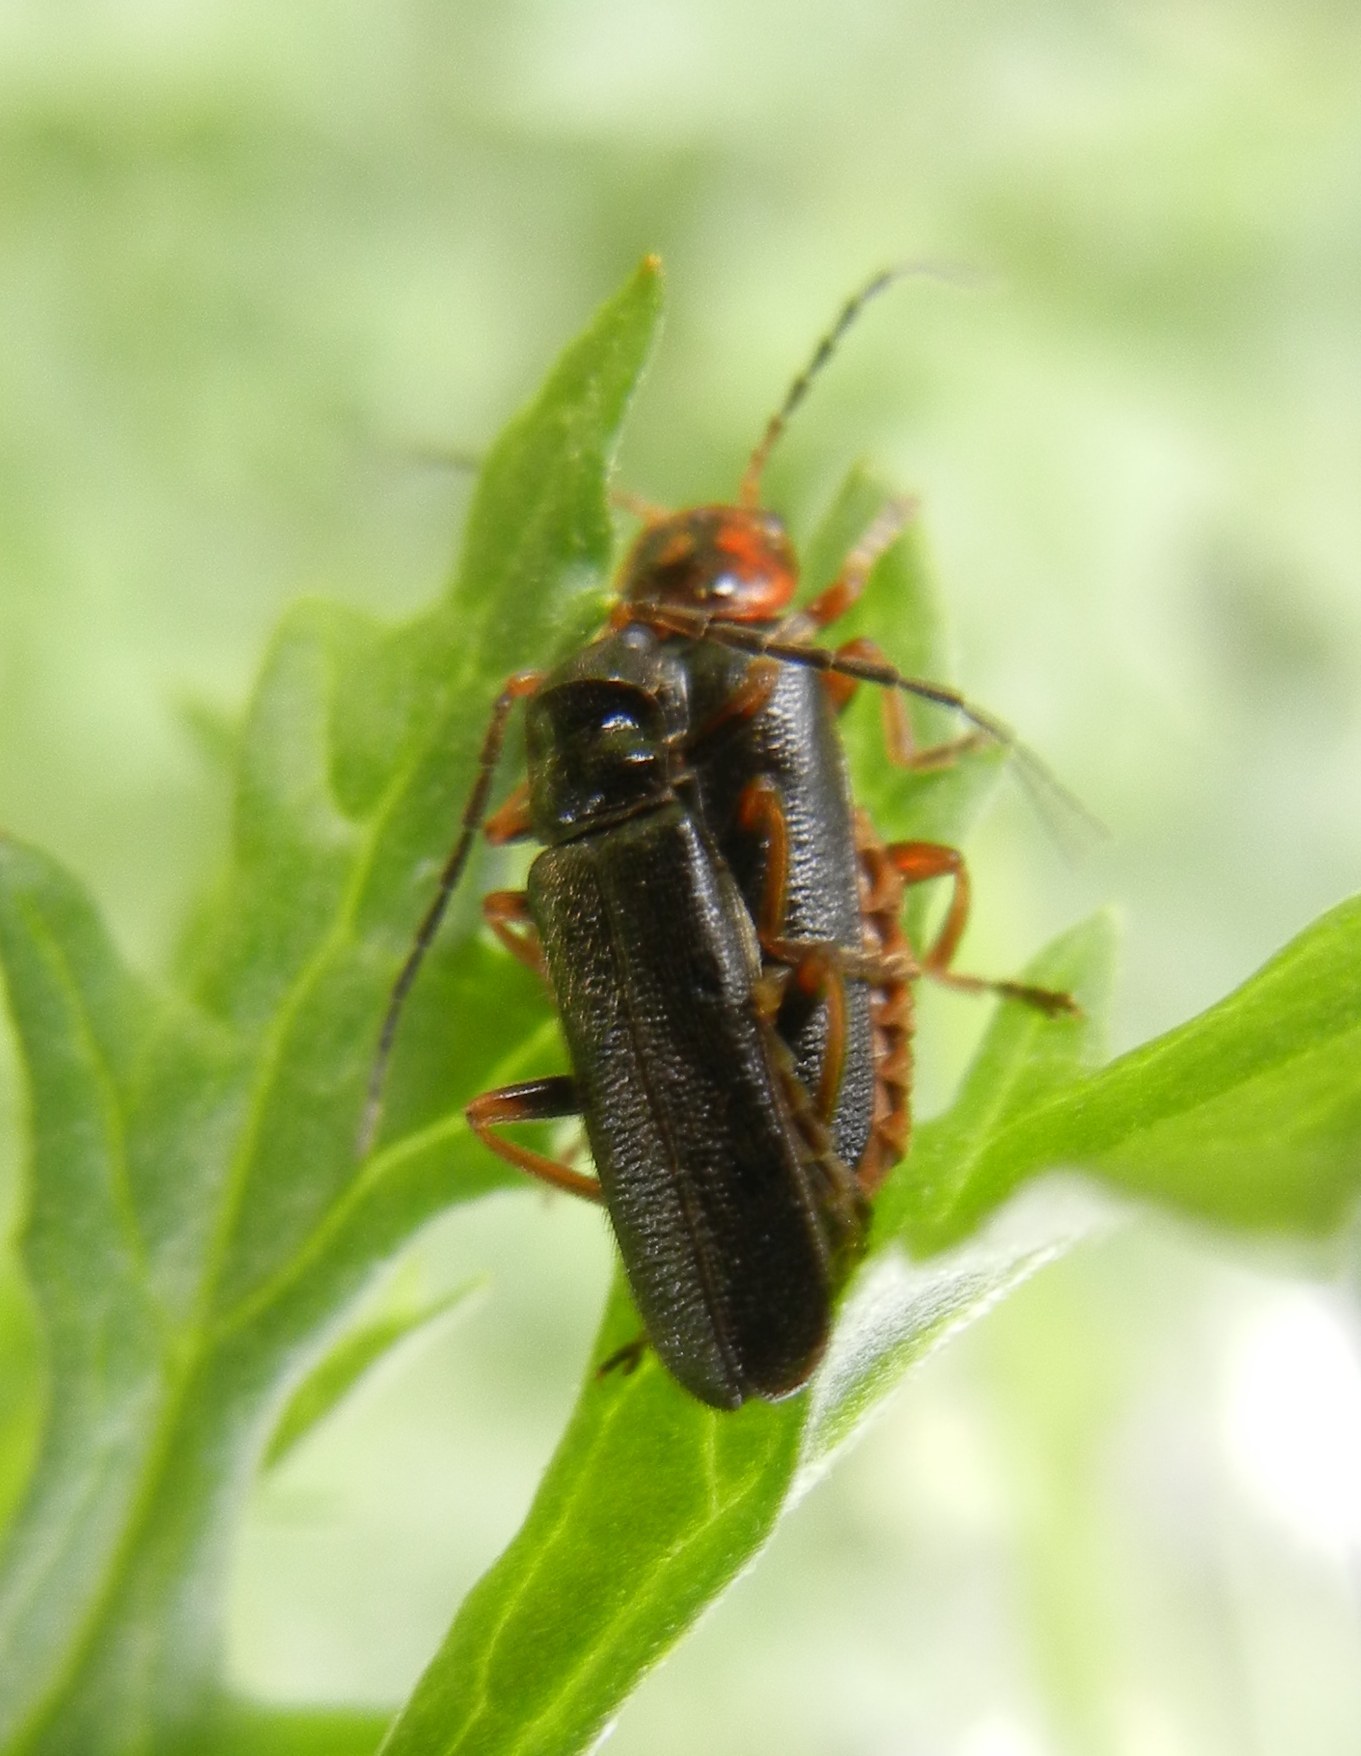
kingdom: Animalia
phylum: Arthropoda
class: Insecta
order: Coleoptera
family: Cantharidae
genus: Cantharis
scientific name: Cantharis flavilabris
